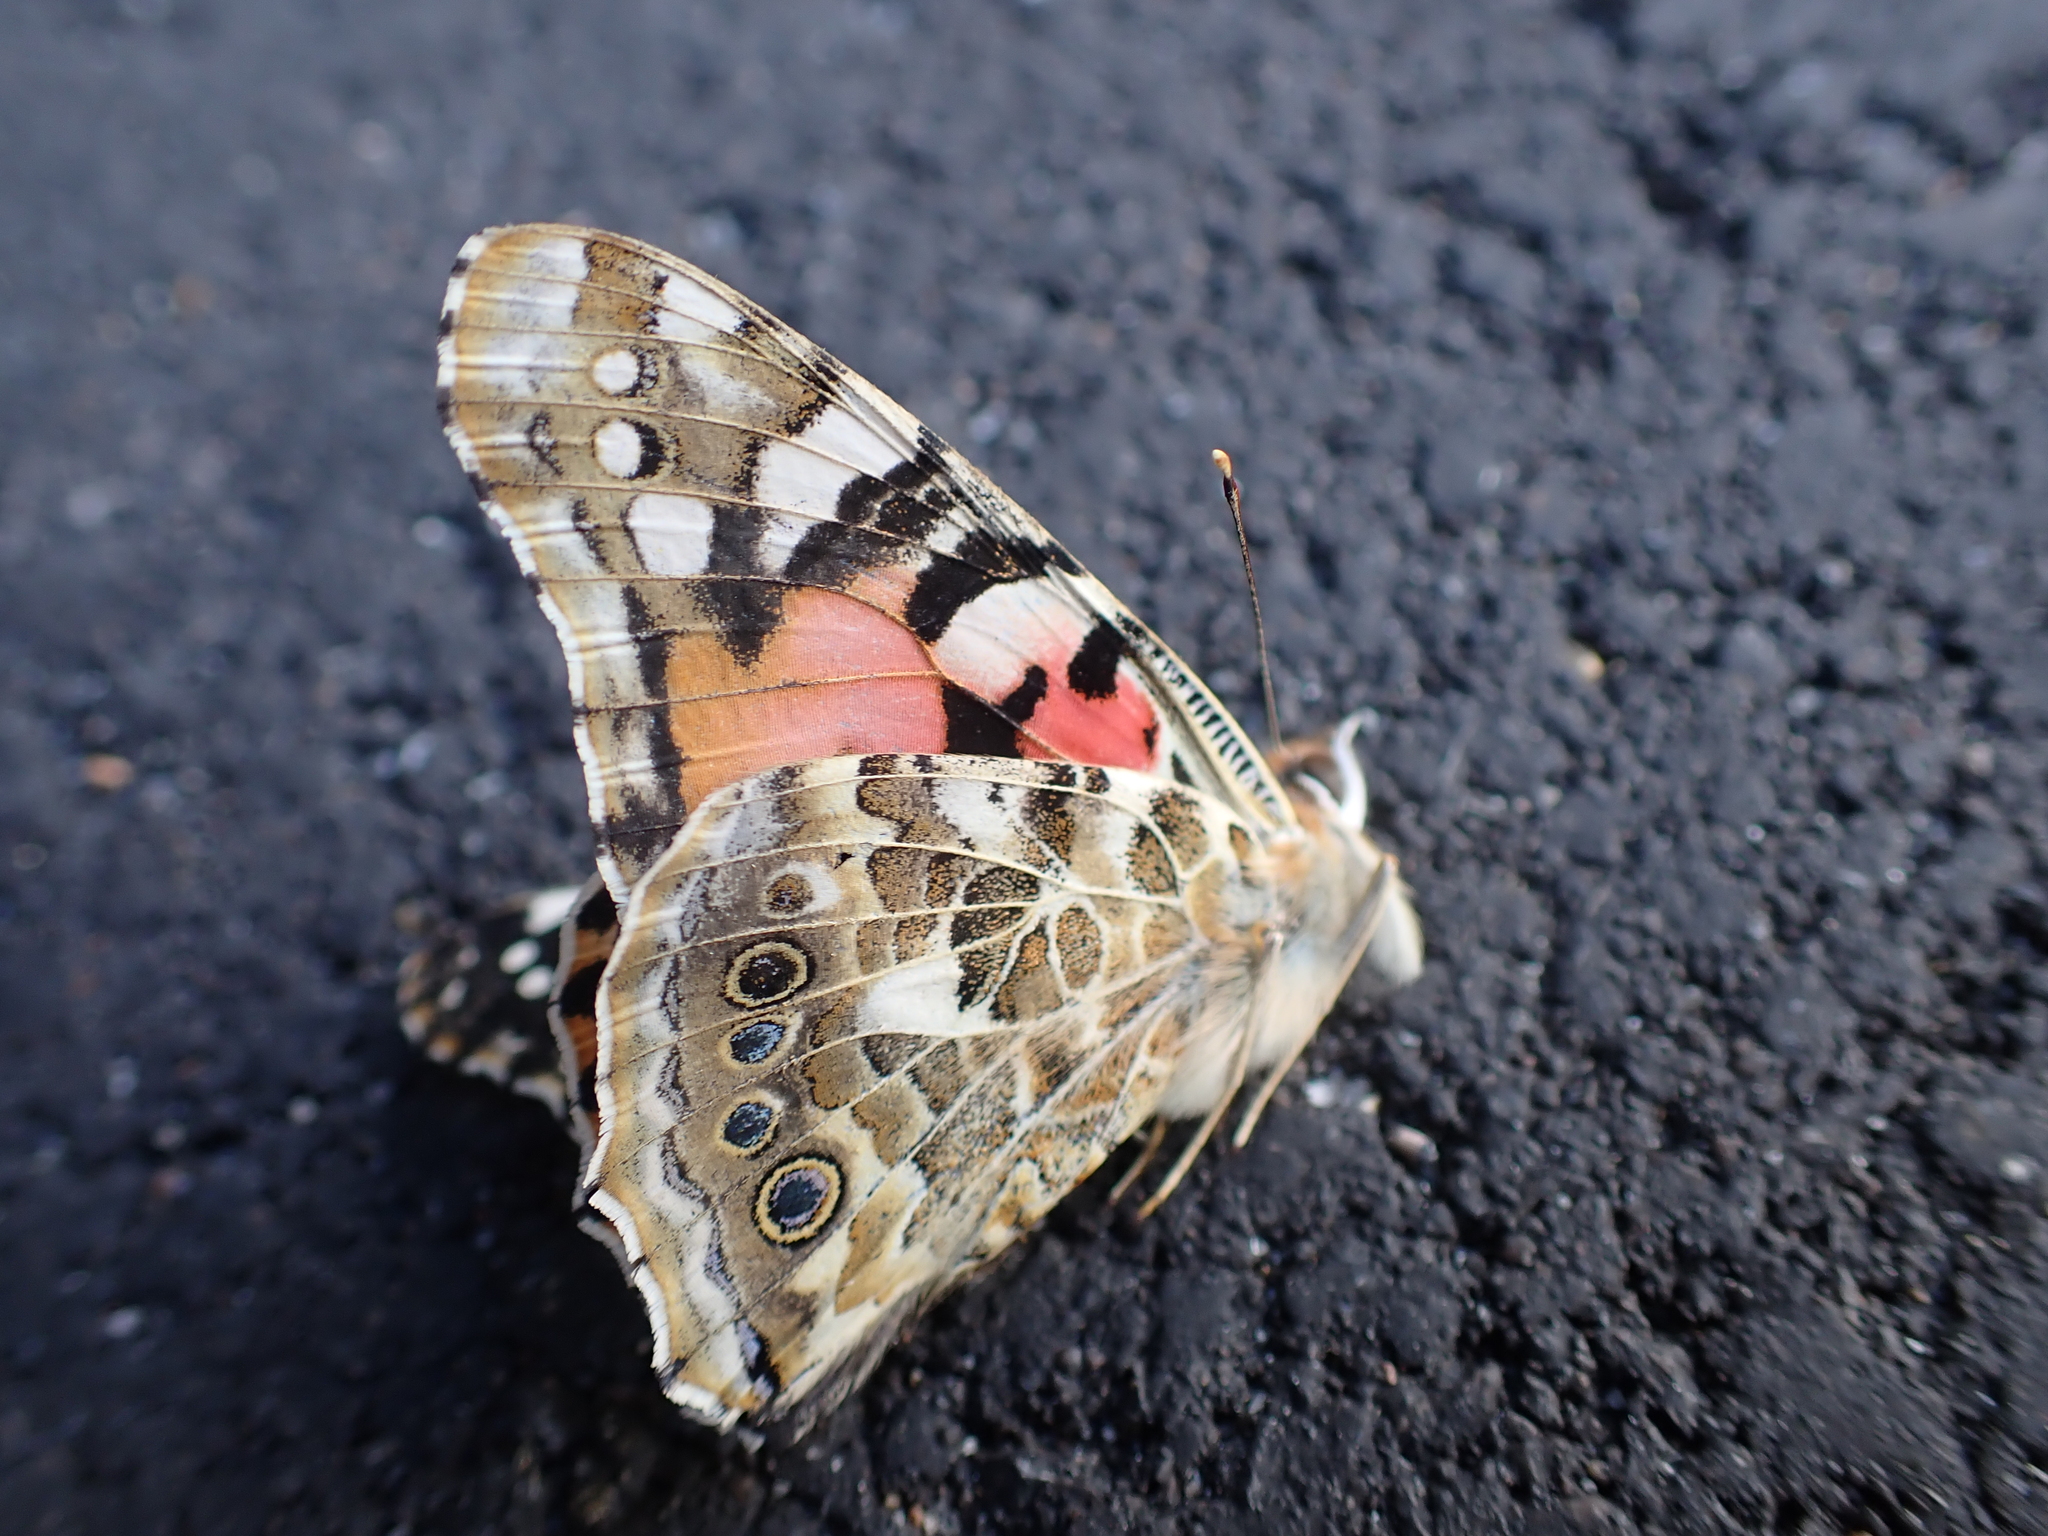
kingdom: Animalia
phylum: Arthropoda
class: Insecta
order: Lepidoptera
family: Nymphalidae
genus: Vanessa
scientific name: Vanessa cardui
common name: Painted lady
